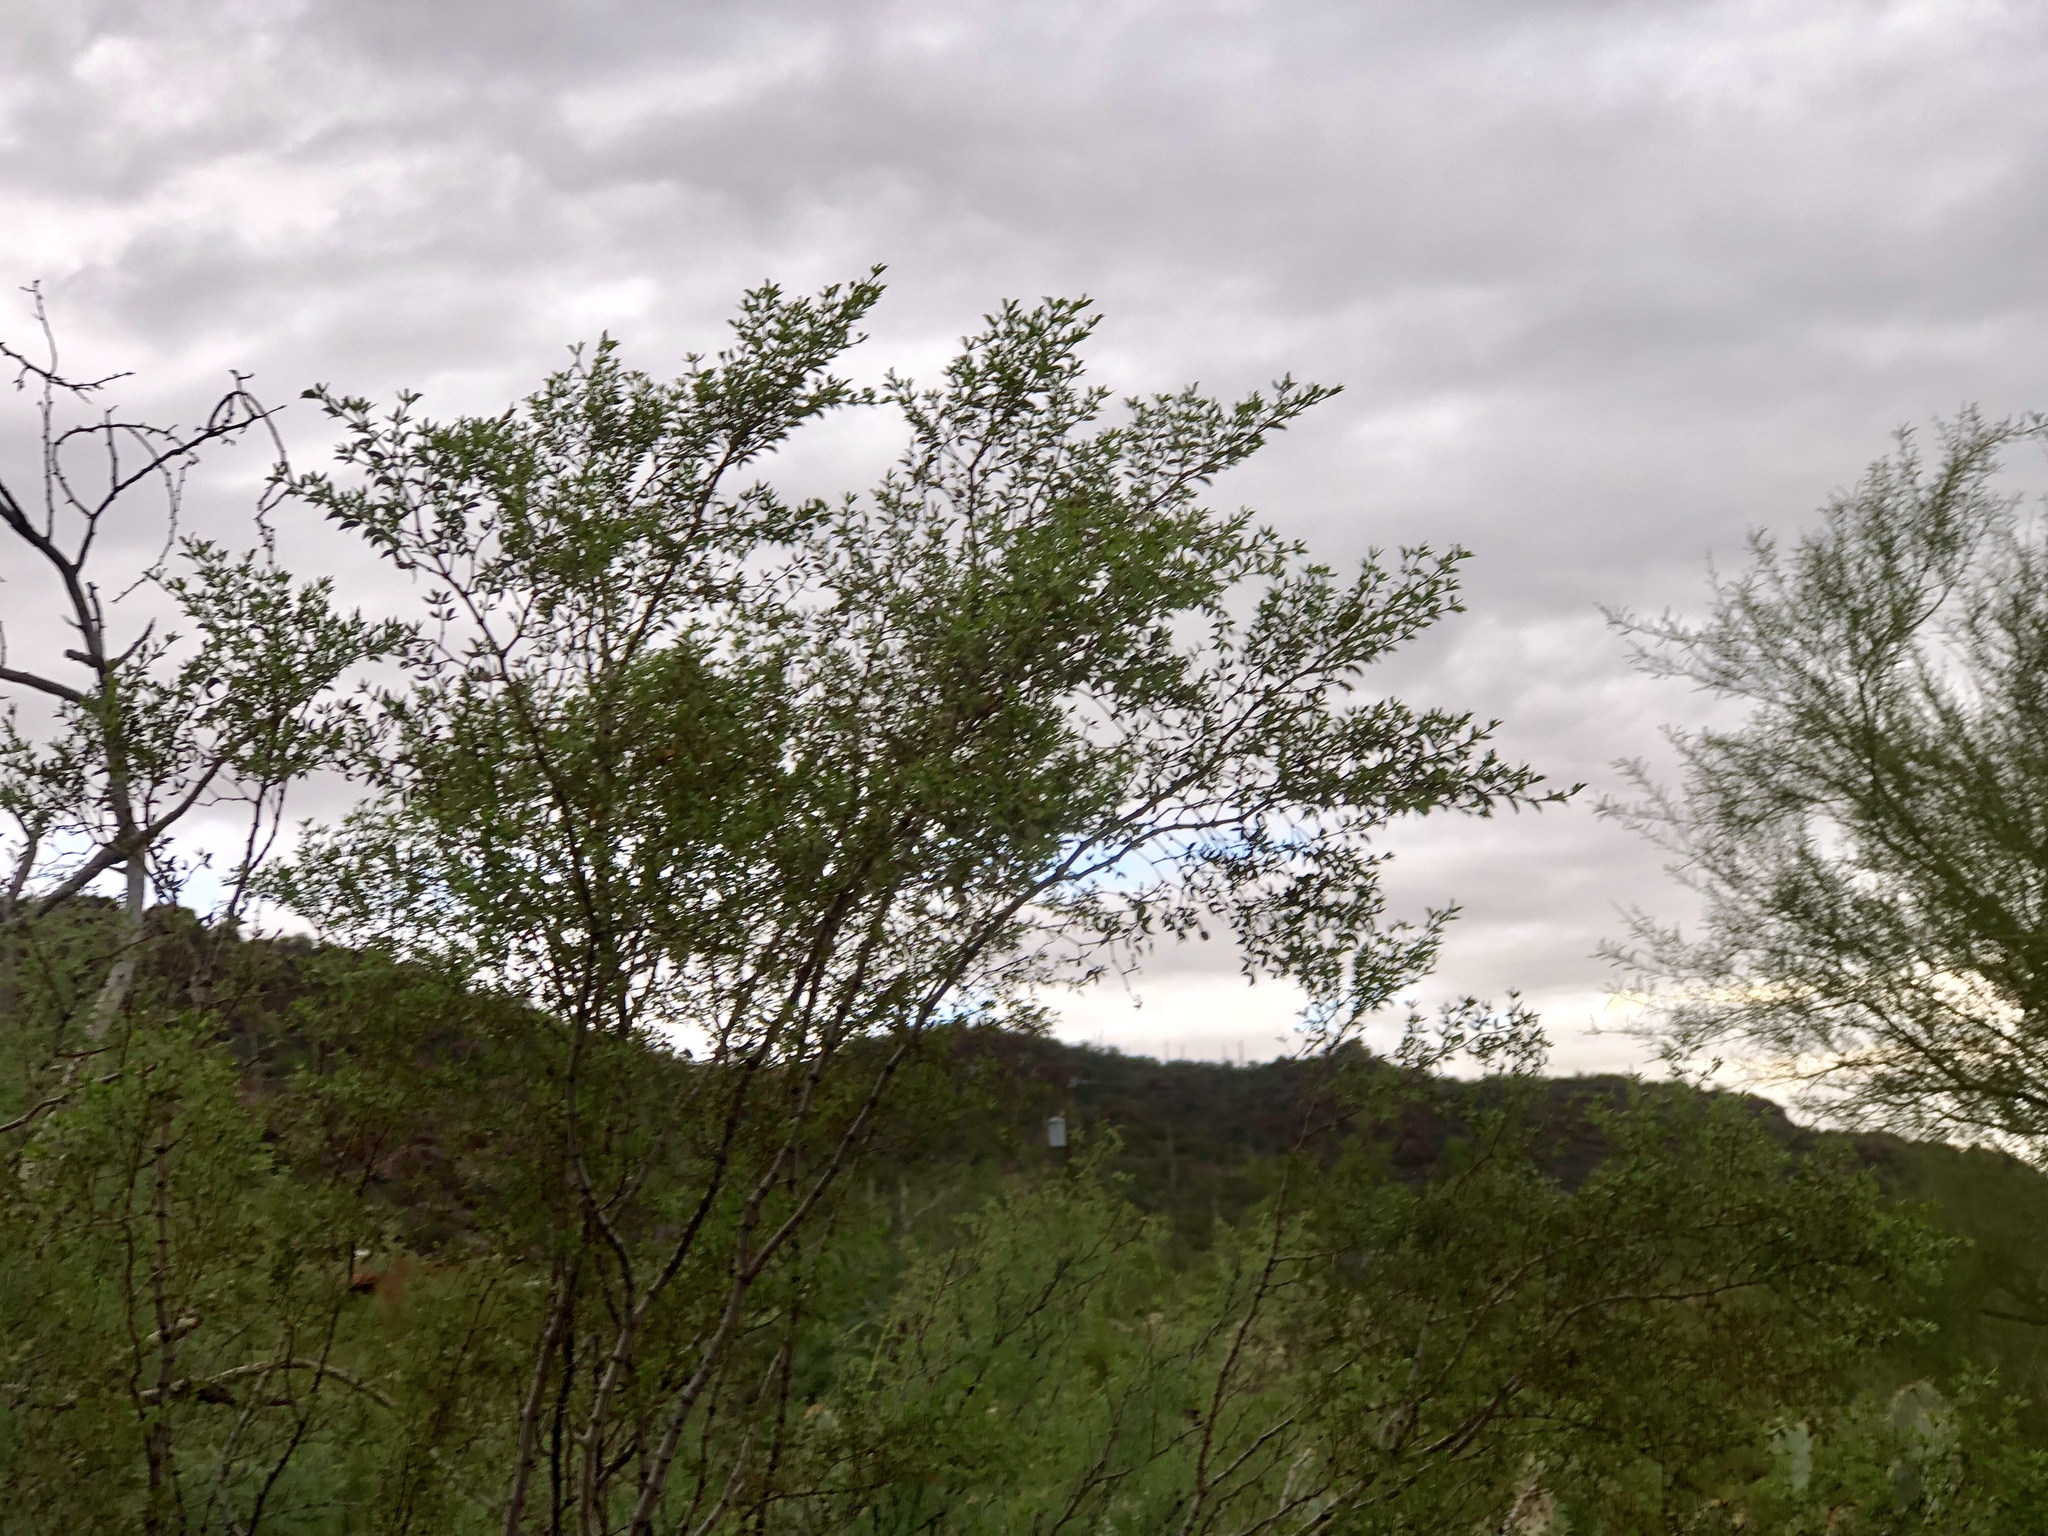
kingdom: Plantae
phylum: Tracheophyta
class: Magnoliopsida
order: Zygophyllales
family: Zygophyllaceae
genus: Larrea
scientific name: Larrea tridentata
